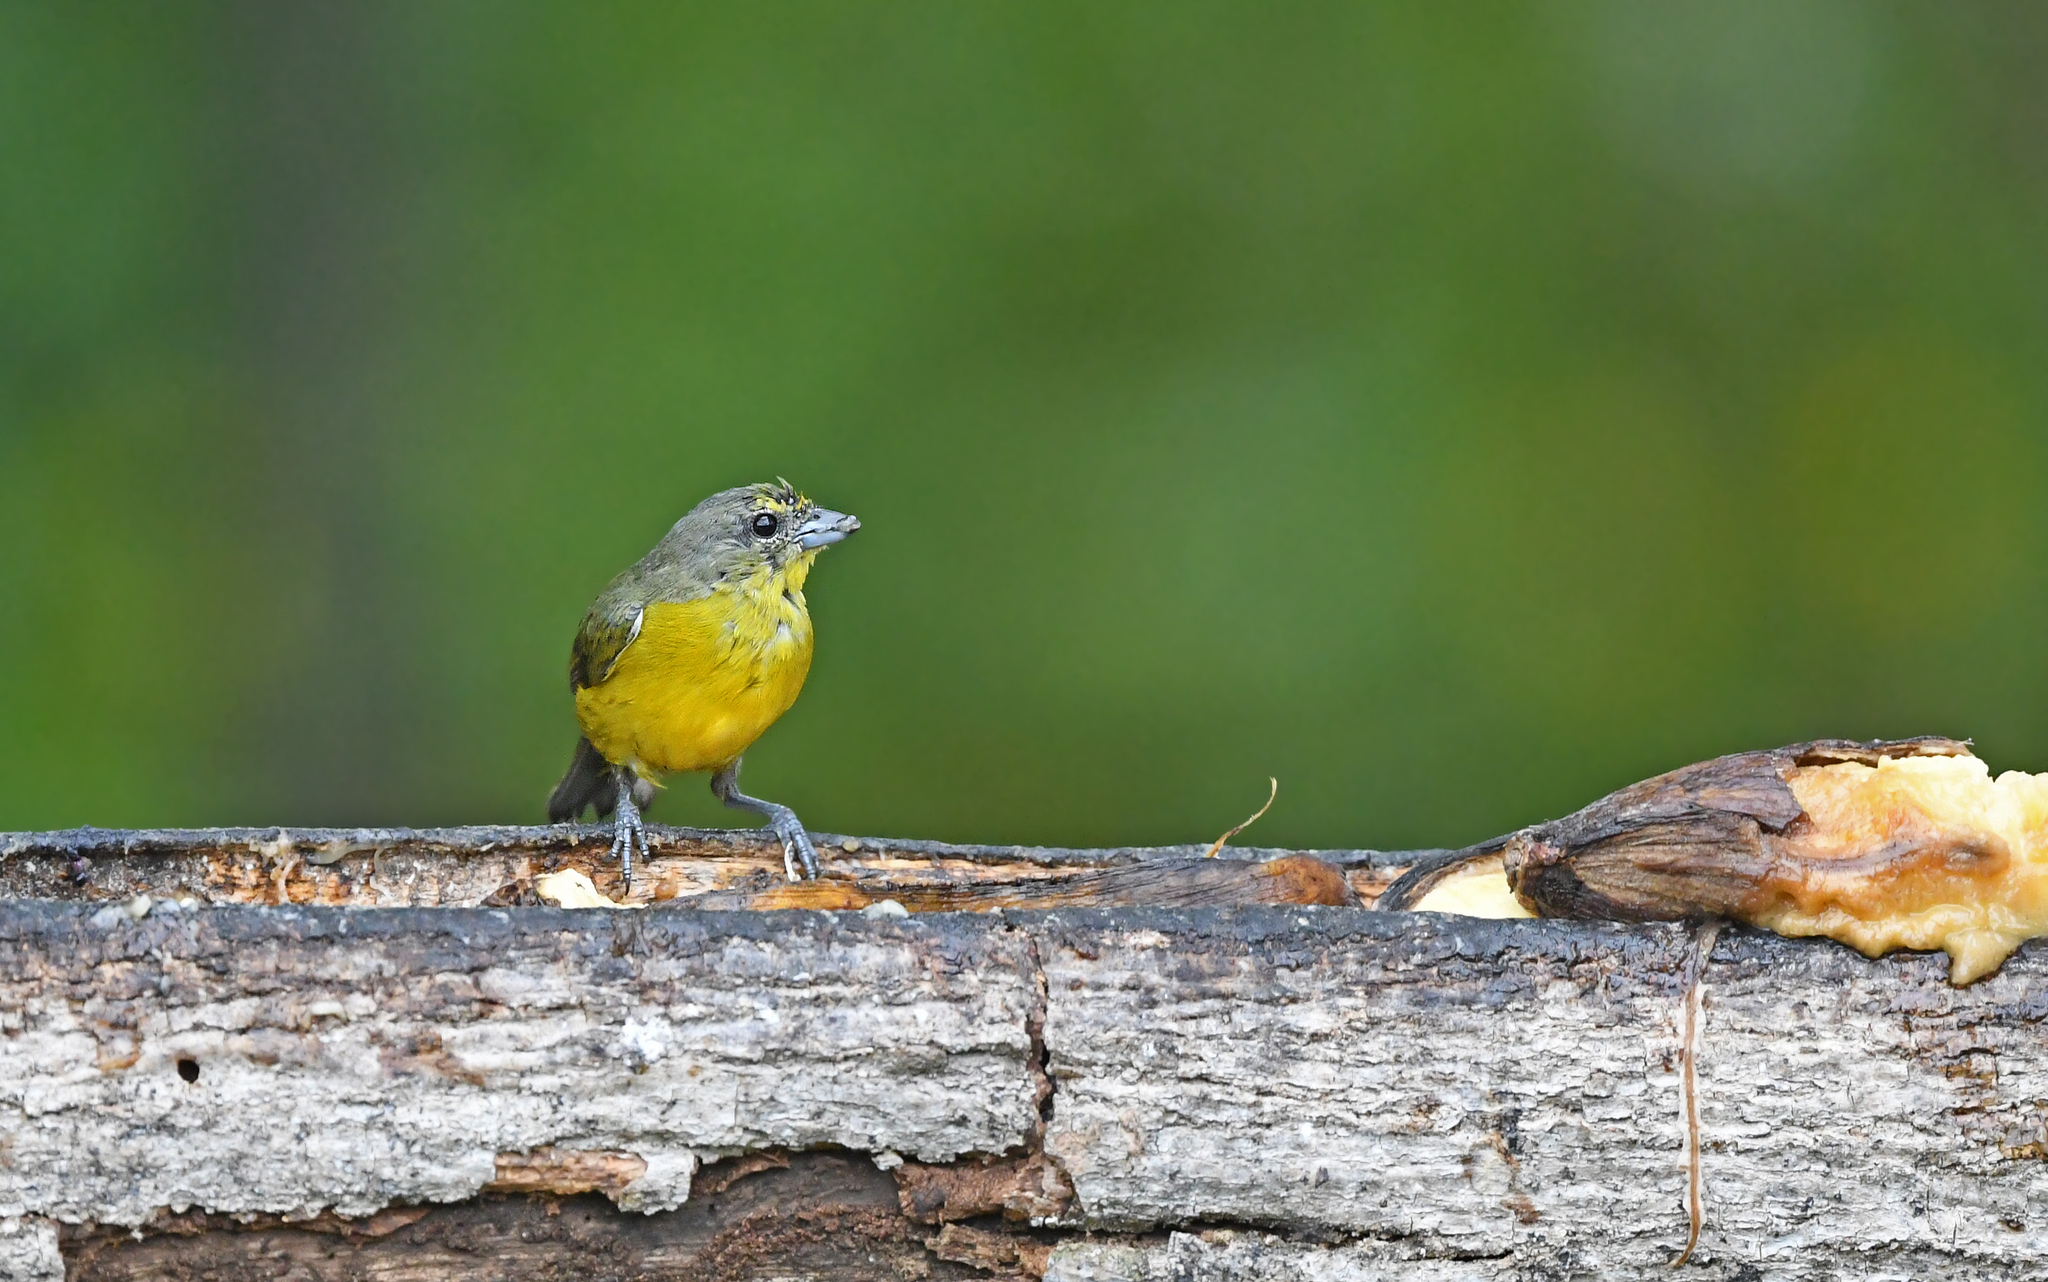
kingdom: Animalia
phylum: Chordata
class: Aves
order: Passeriformes
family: Fringillidae
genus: Euphonia
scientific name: Euphonia concinna
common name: Velvet-fronted euphonia
